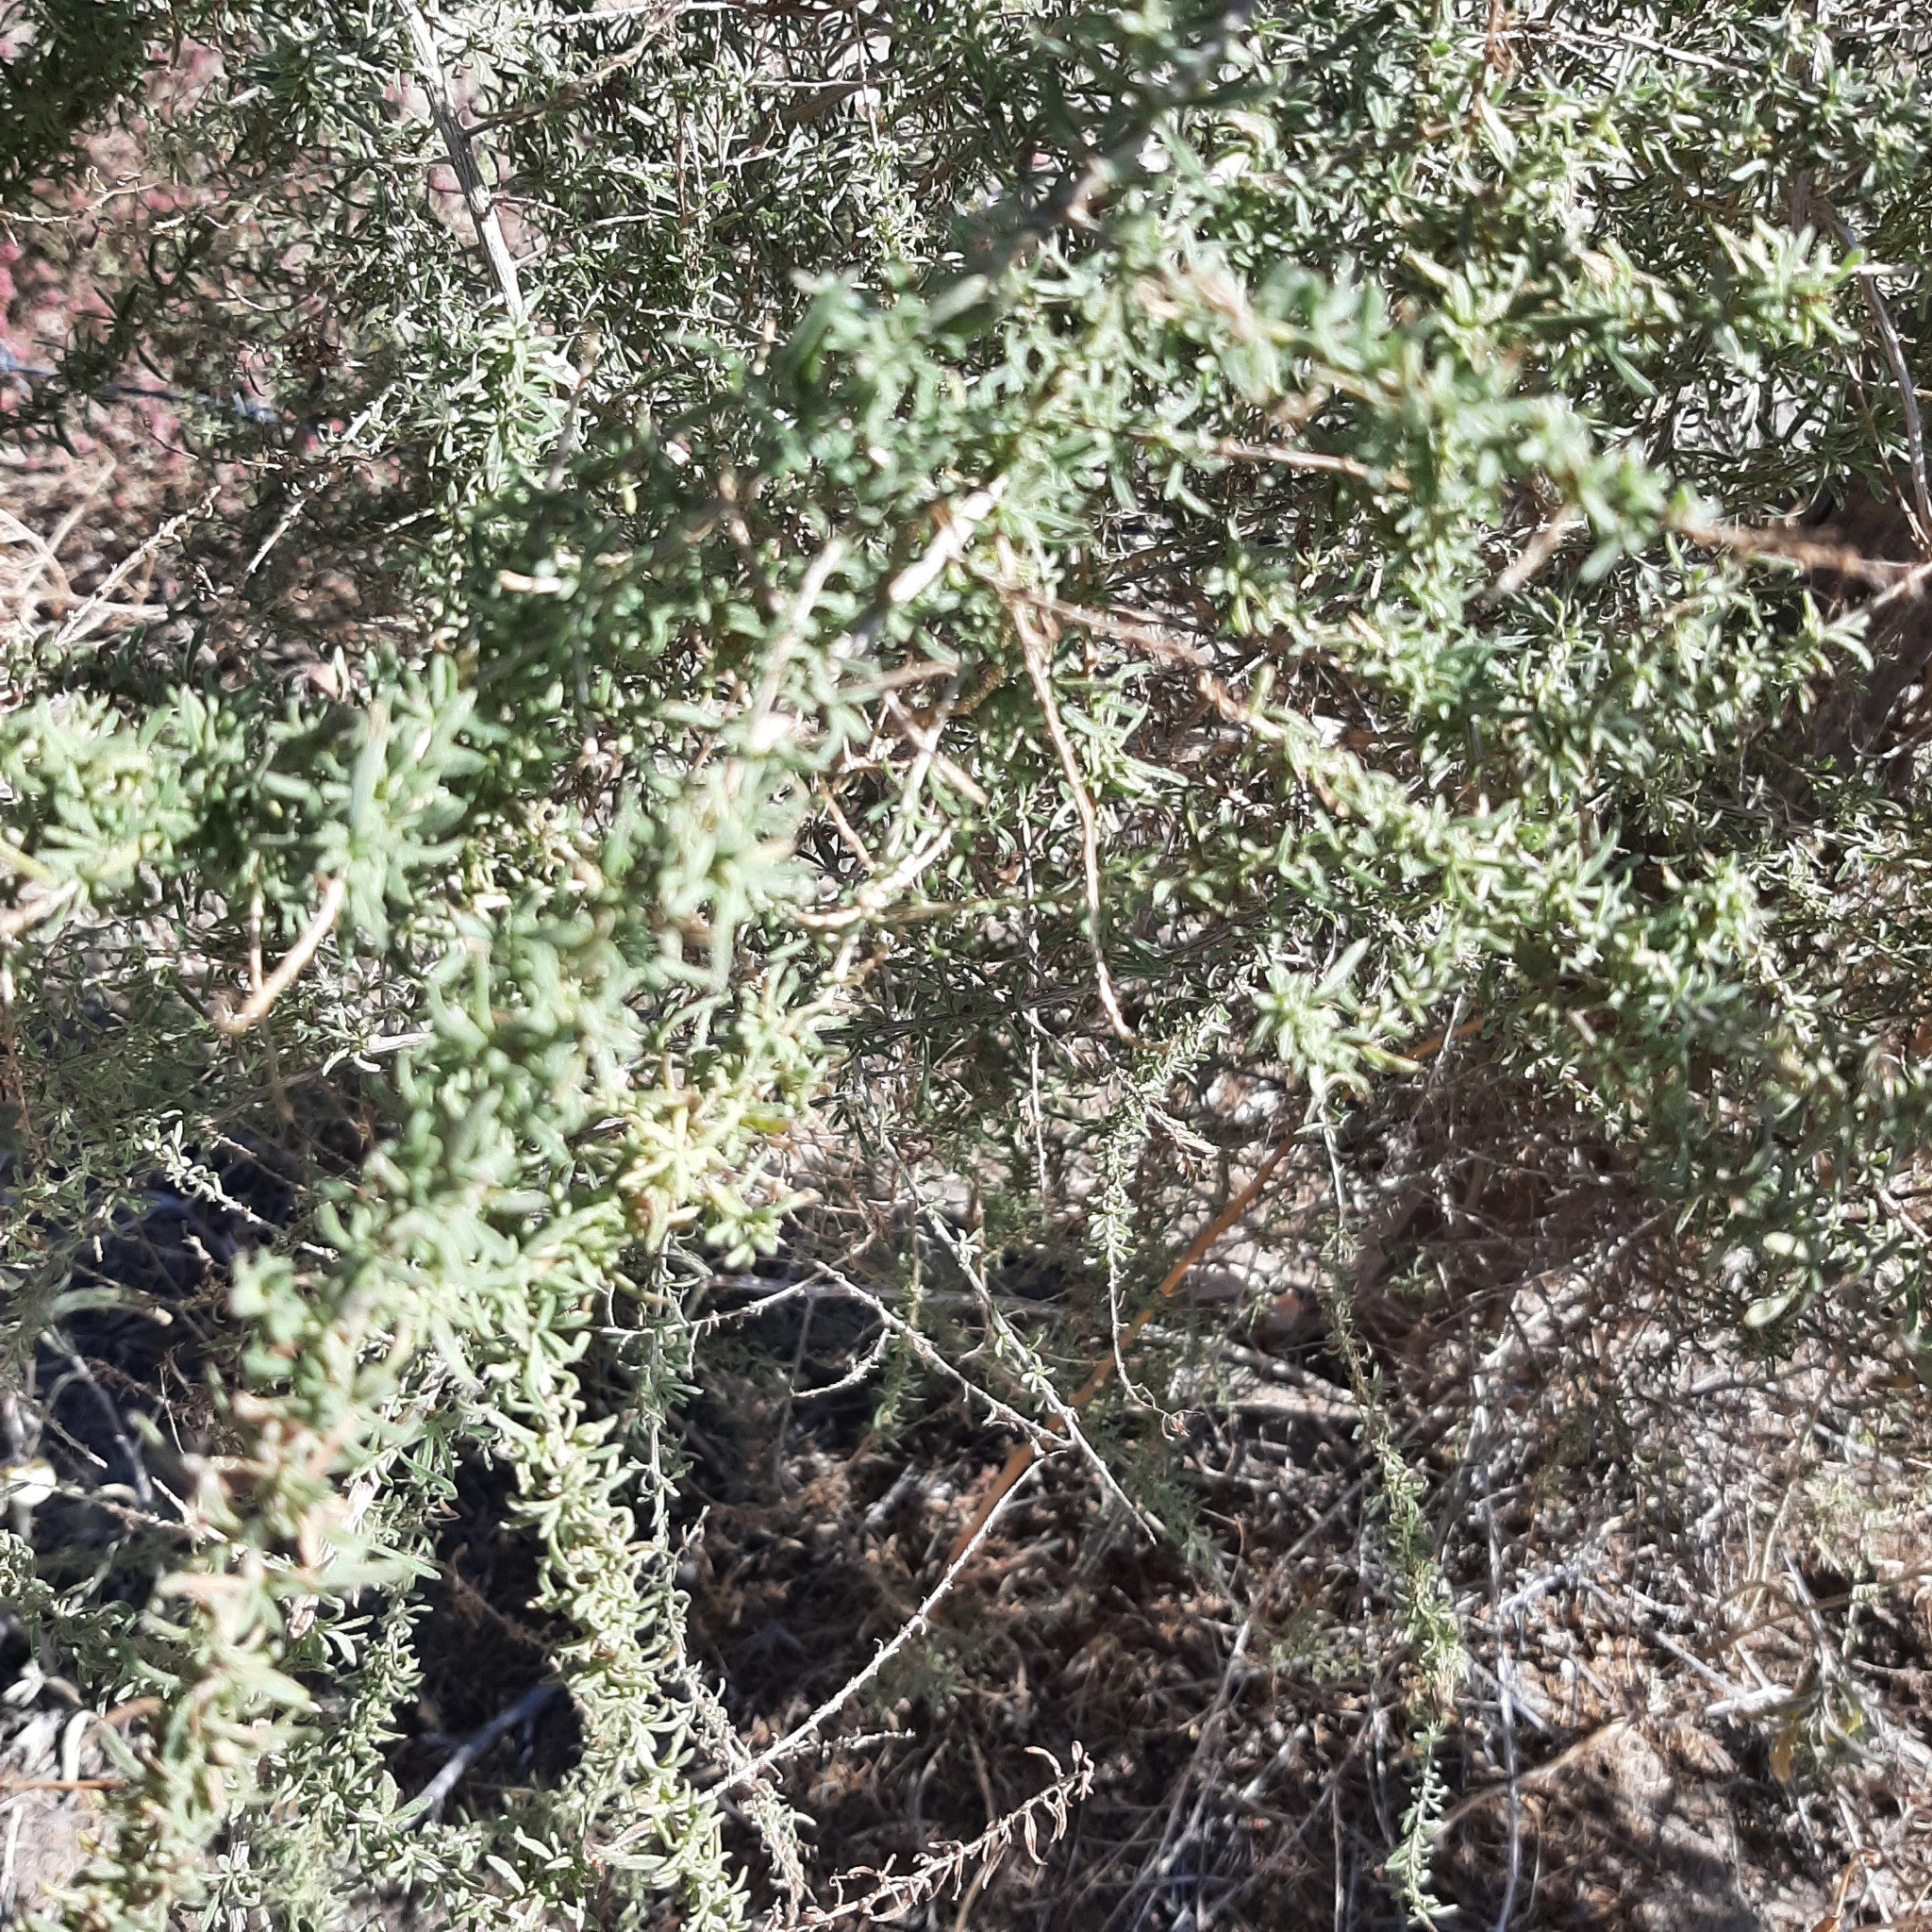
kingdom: Plantae
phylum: Tracheophyta
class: Magnoliopsida
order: Solanales
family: Solanaceae
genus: Lycium
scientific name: Lycium chilense
